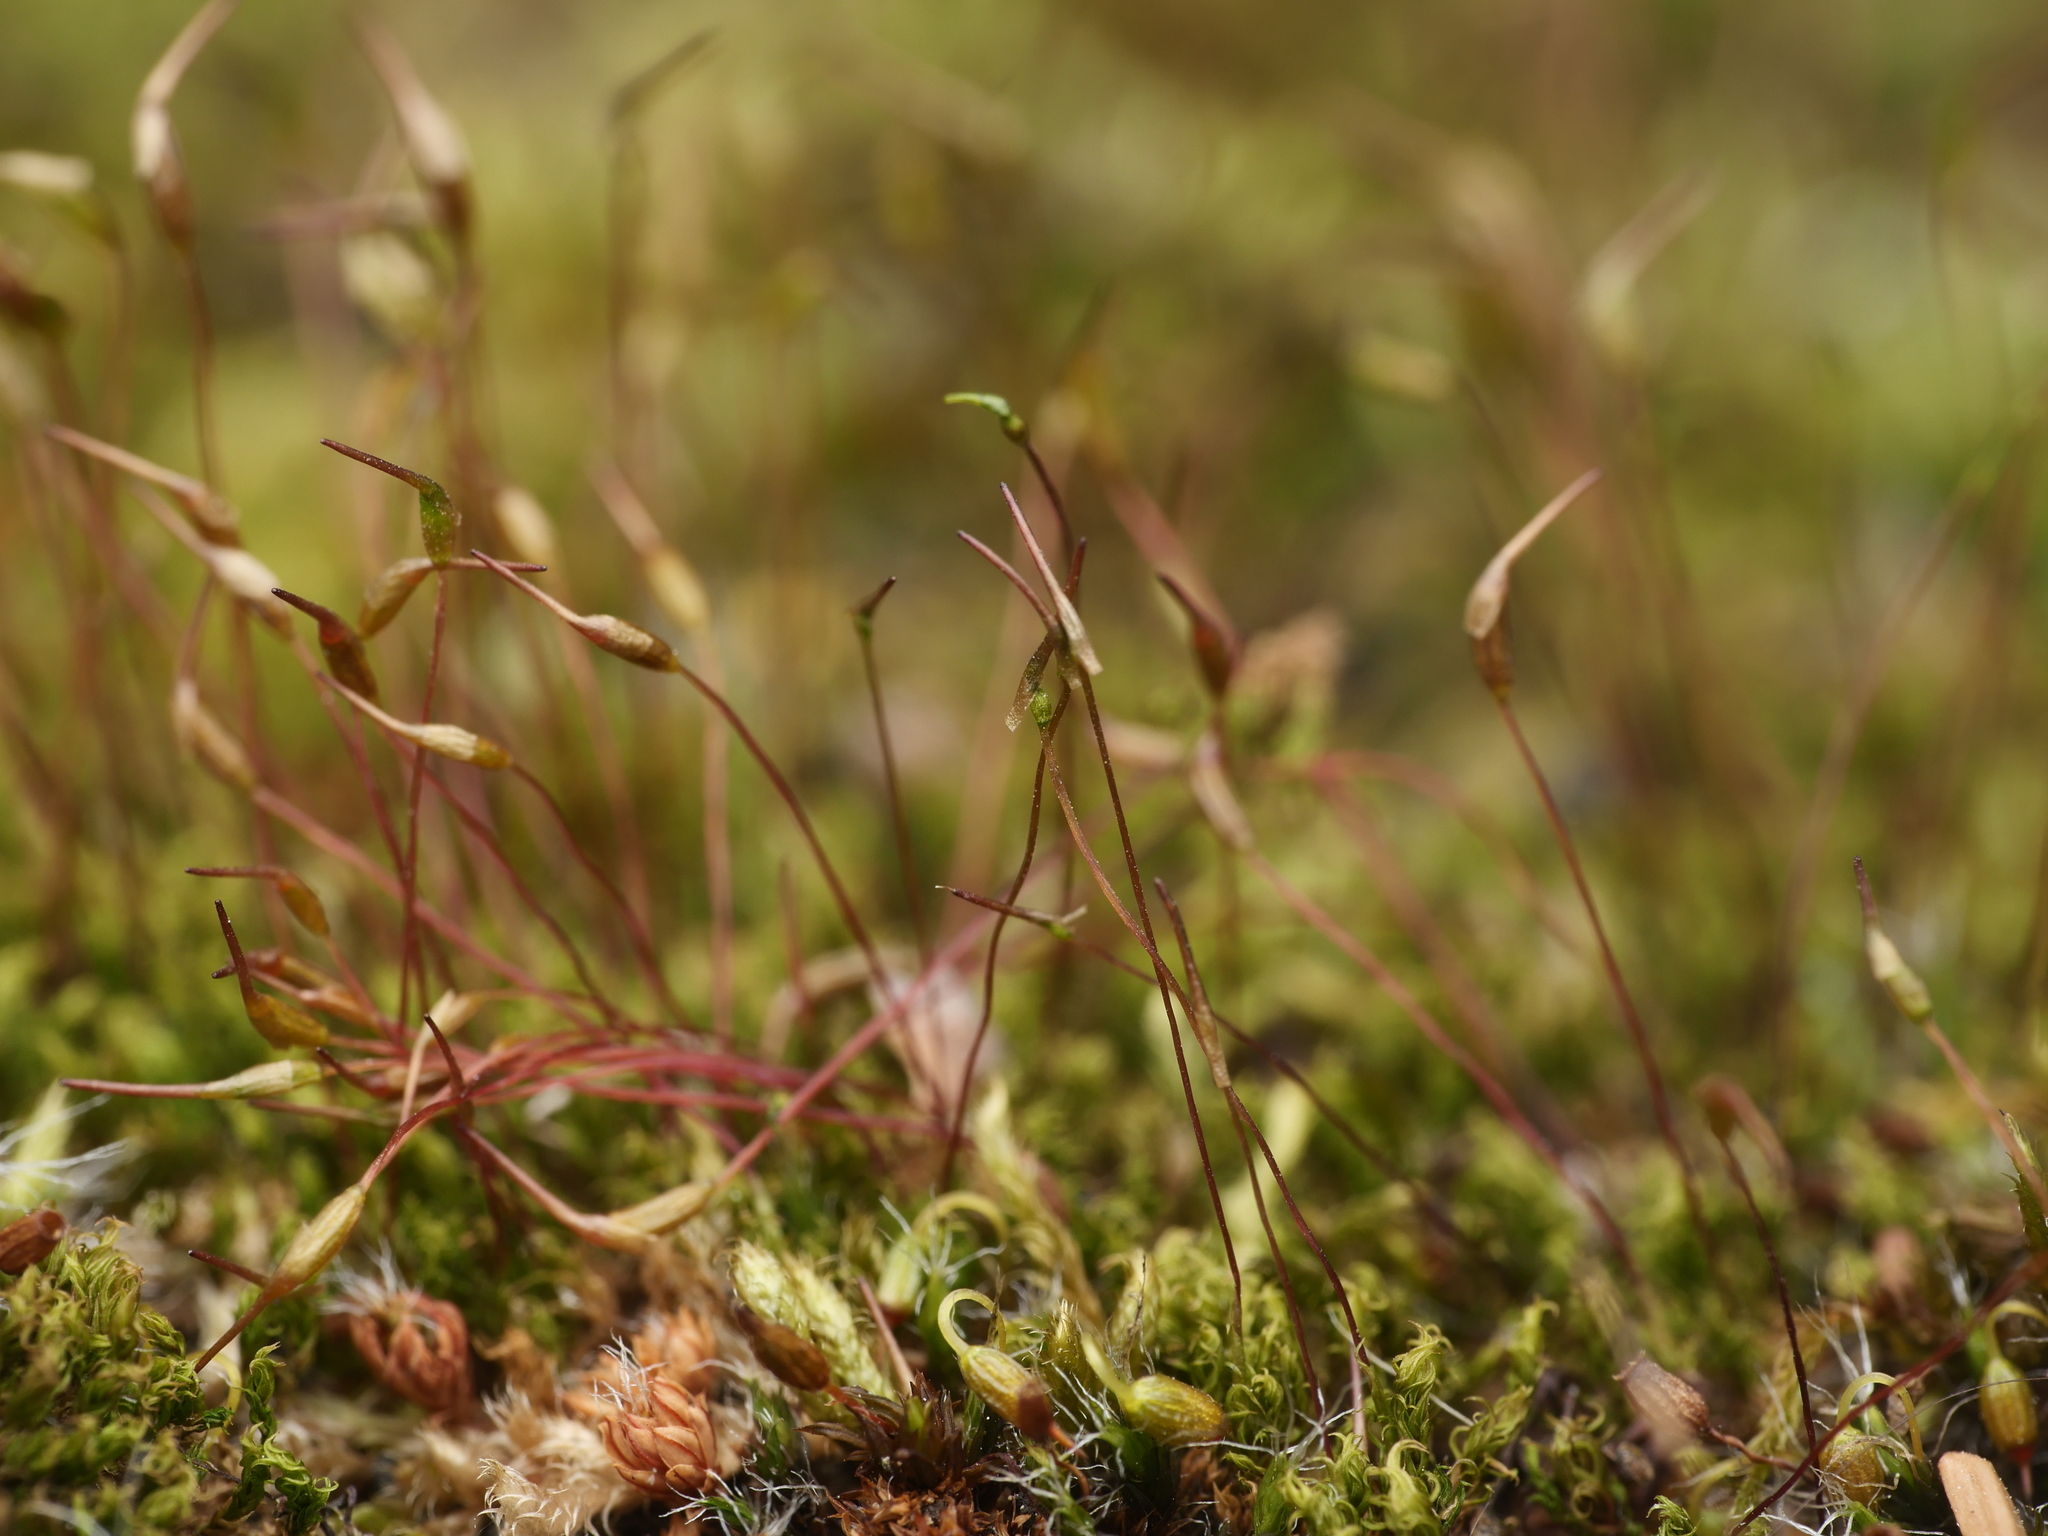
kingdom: Plantae
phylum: Bryophyta
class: Bryopsida
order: Dicranales
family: Ditrichaceae
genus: Ceratodon
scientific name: Ceratodon purpureus
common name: Redshank
